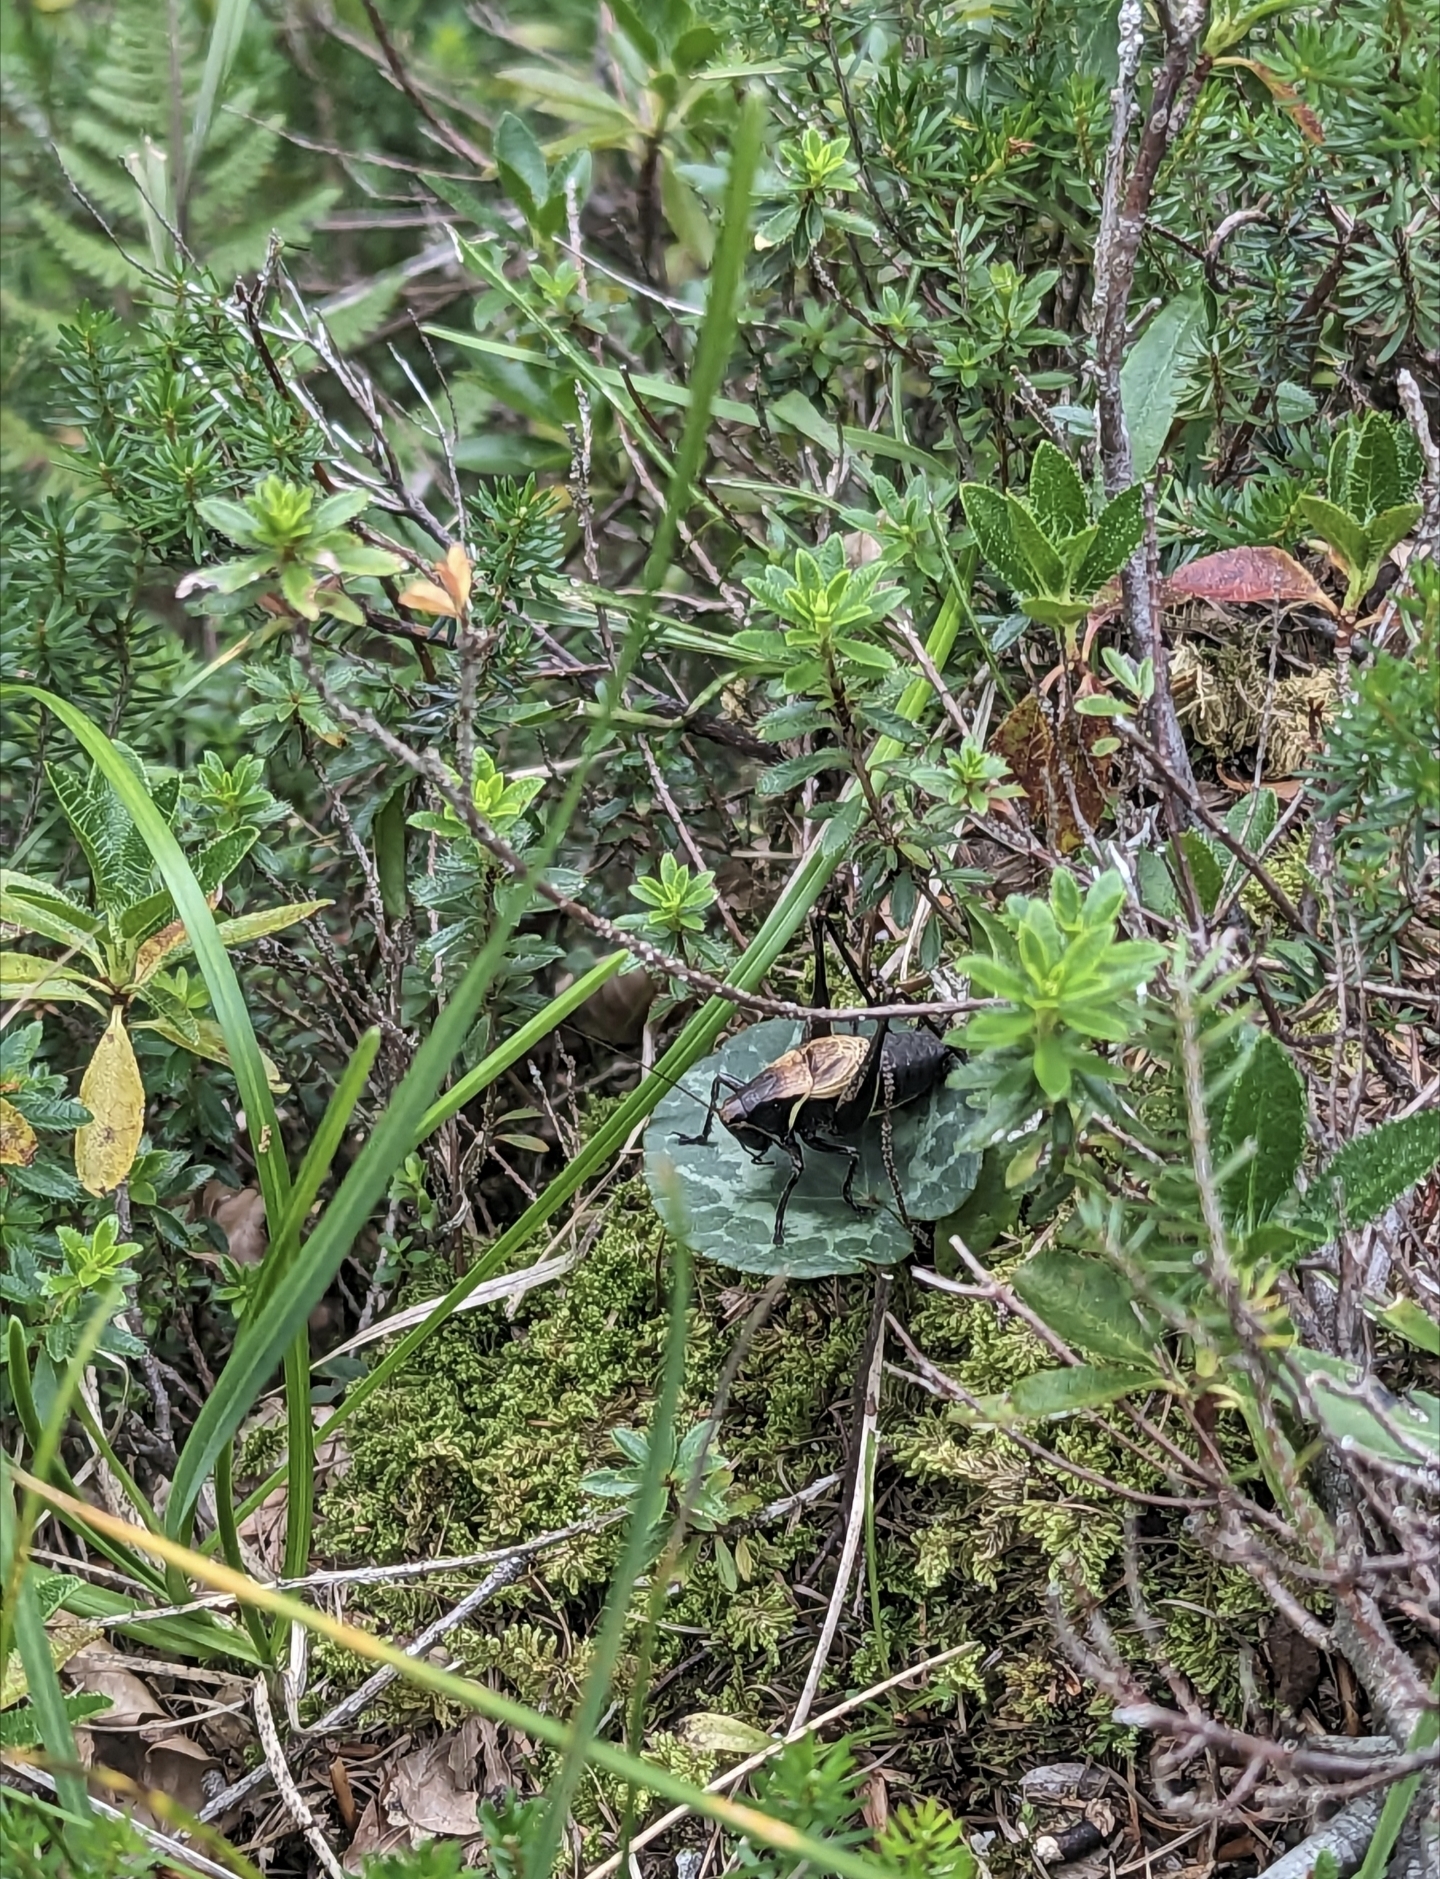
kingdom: Animalia
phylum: Arthropoda
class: Insecta
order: Orthoptera
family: Tettigoniidae
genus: Pholidoptera
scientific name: Pholidoptera aptera
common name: Alpine dark bush-cricket
